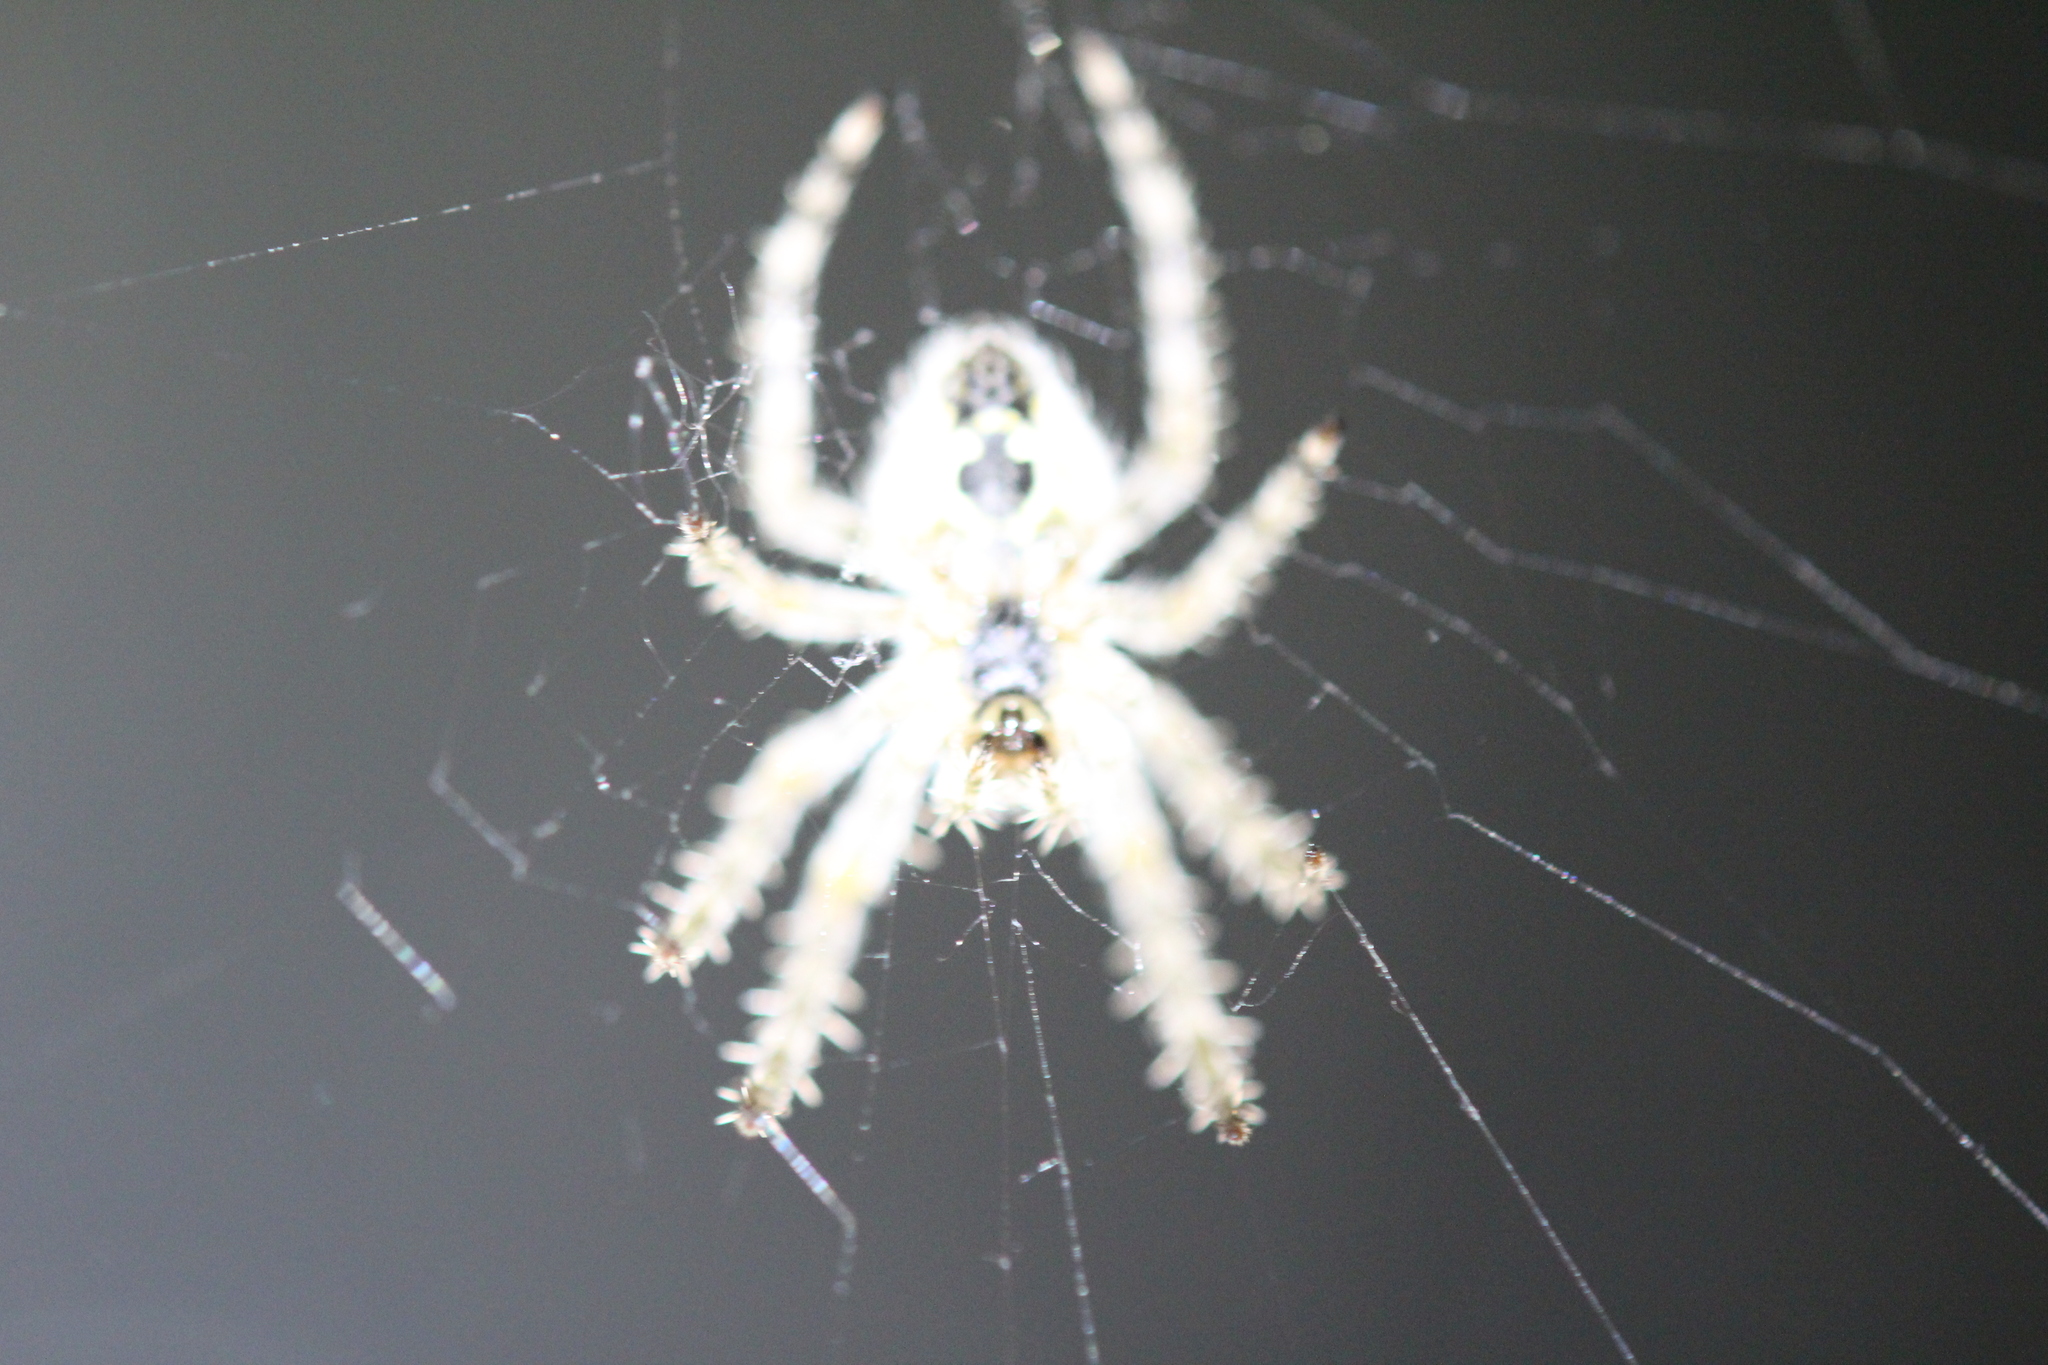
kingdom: Animalia
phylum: Arthropoda
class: Arachnida
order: Araneae
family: Araneidae
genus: Araneus
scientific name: Araneus cavaticus
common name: Barn orbweaver
